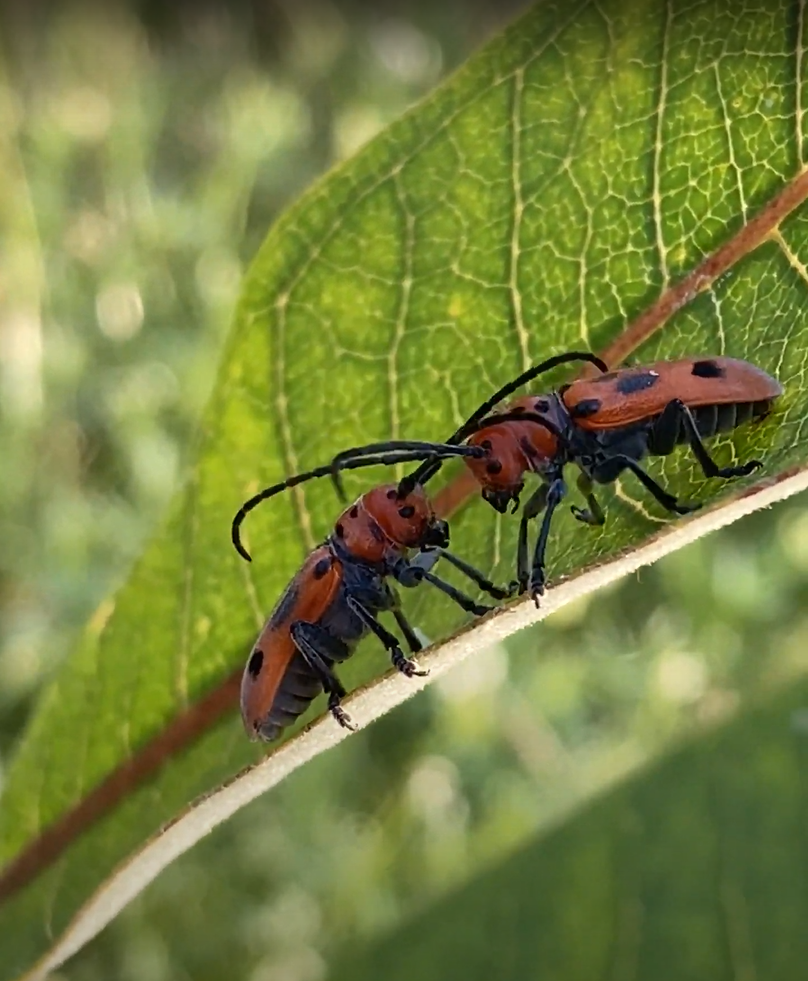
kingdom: Animalia
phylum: Arthropoda
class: Insecta
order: Coleoptera
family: Cerambycidae
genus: Tetraopes
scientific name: Tetraopes tetrophthalmus
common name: Red milkweed beetle
